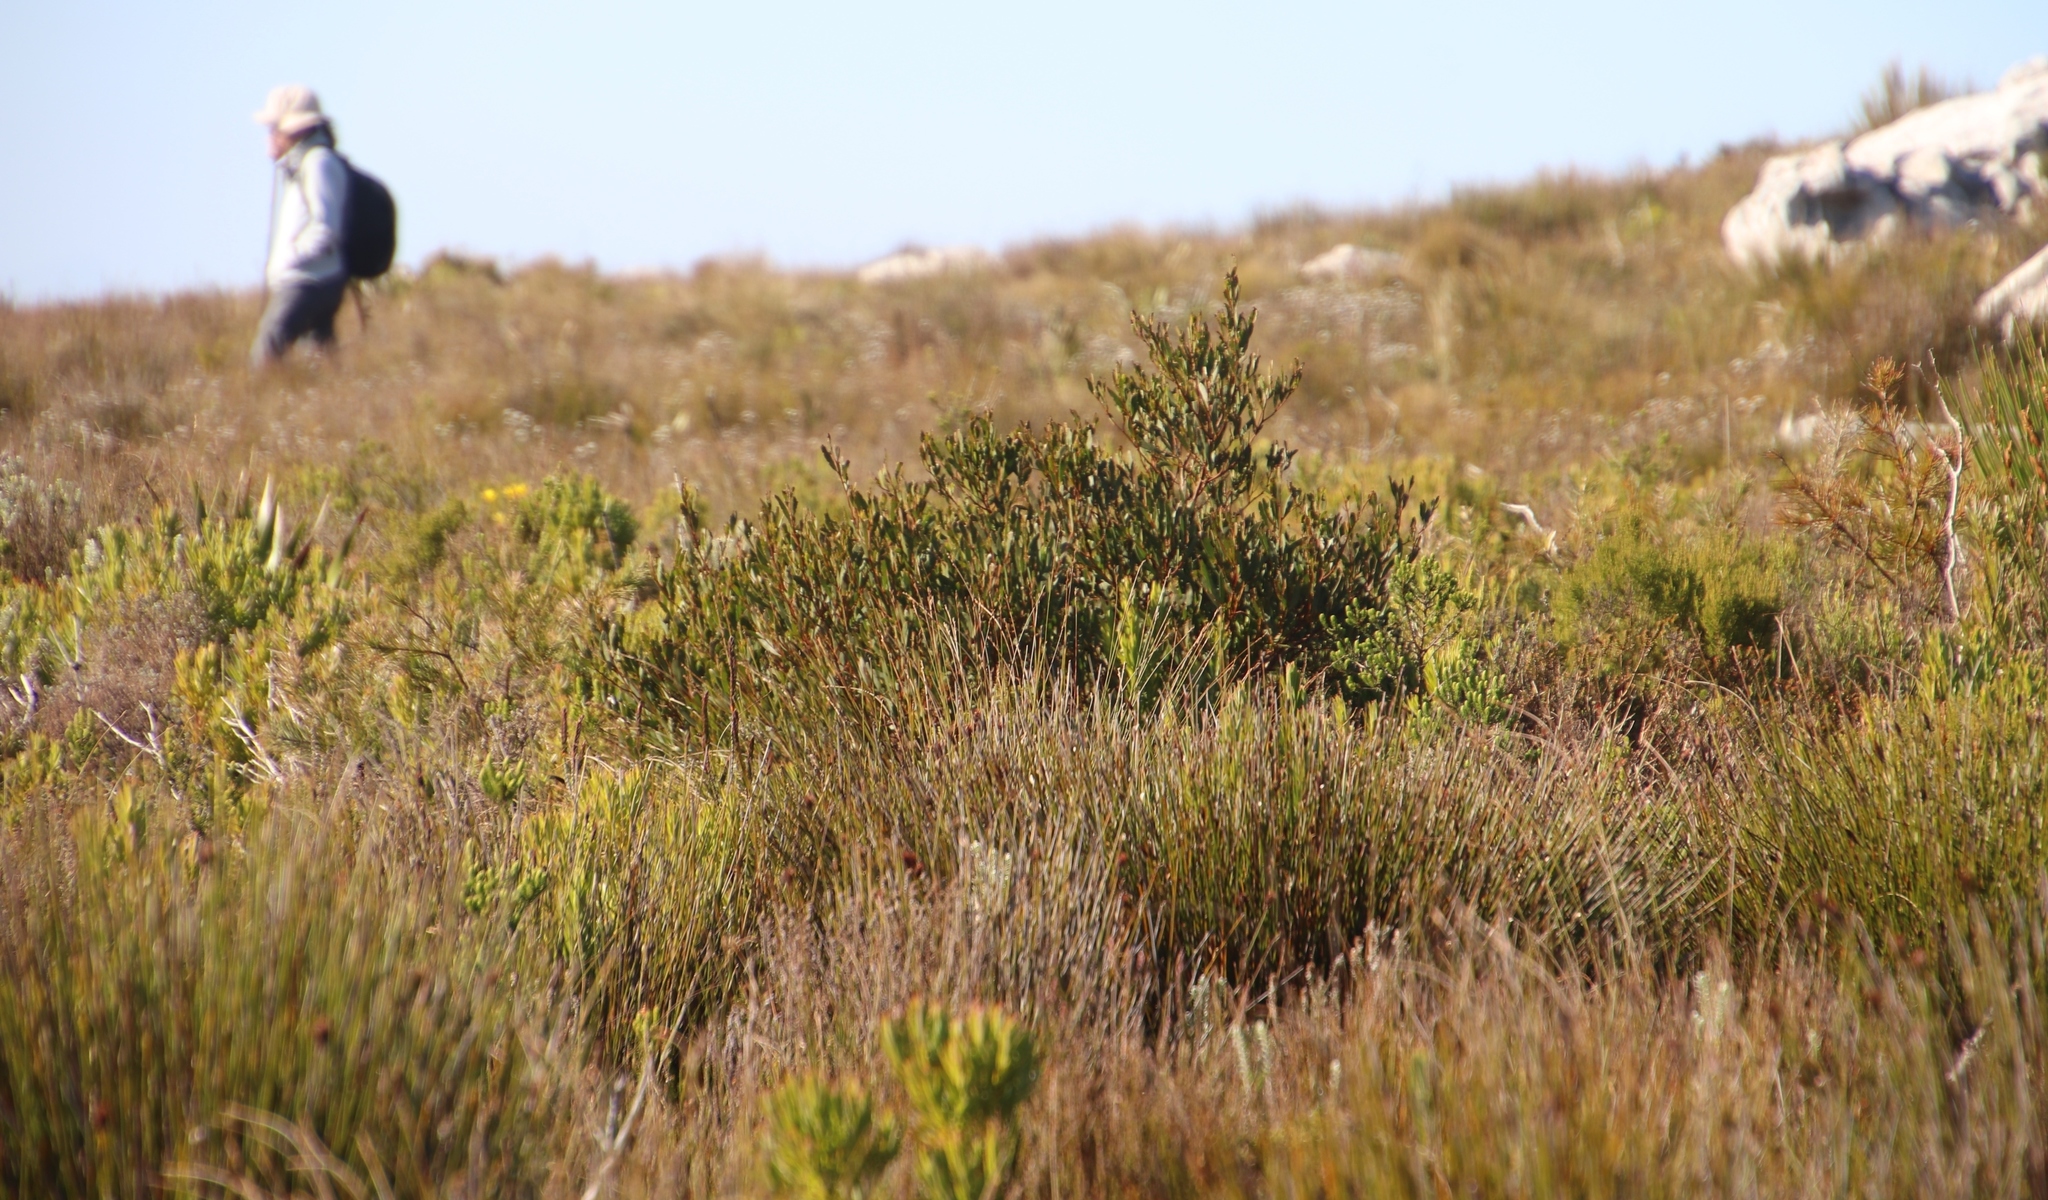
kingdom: Plantae
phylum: Tracheophyta
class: Magnoliopsida
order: Fabales
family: Fabaceae
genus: Acacia
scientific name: Acacia cyclops
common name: Coastal wattle
